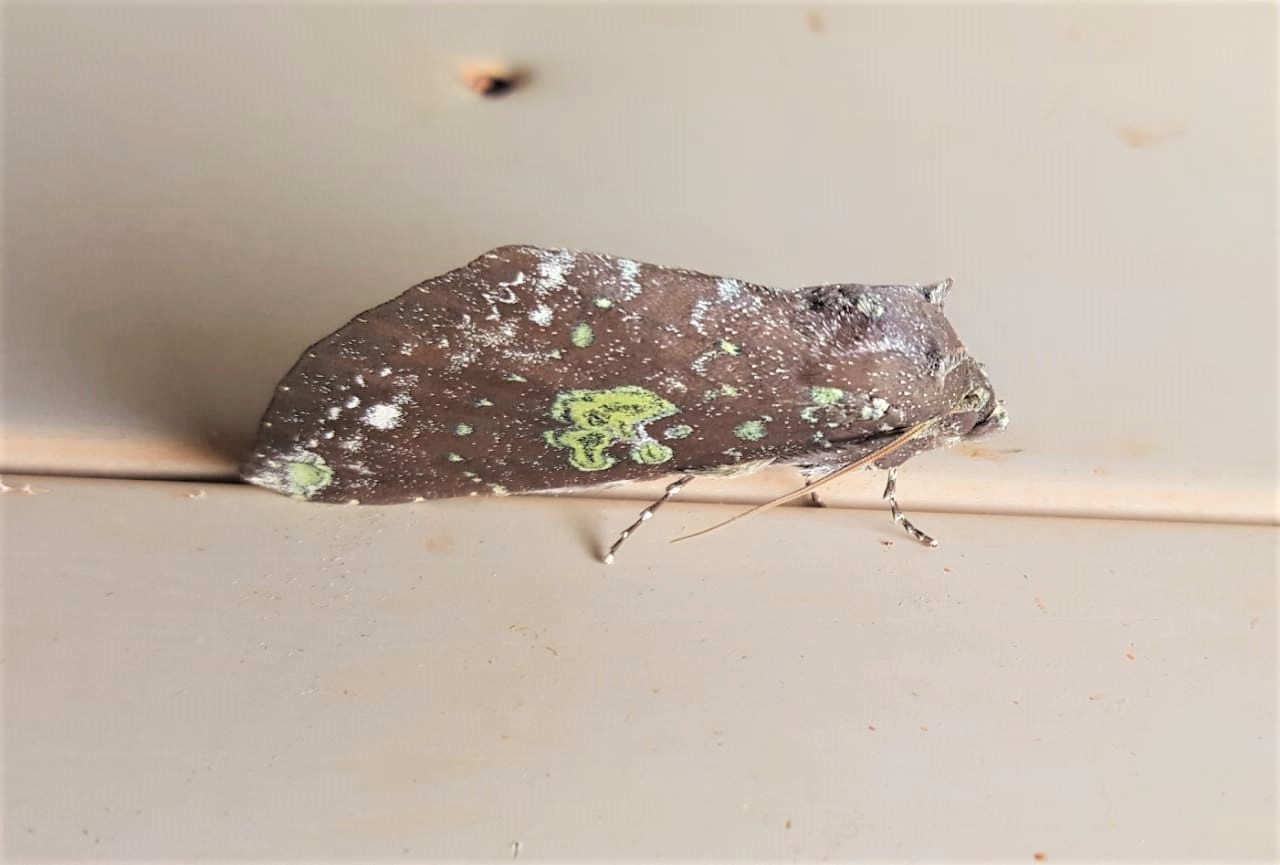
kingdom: Animalia
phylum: Arthropoda
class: Insecta
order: Lepidoptera
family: Notodontidae
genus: Hapigia
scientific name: Hapigia gaudens
